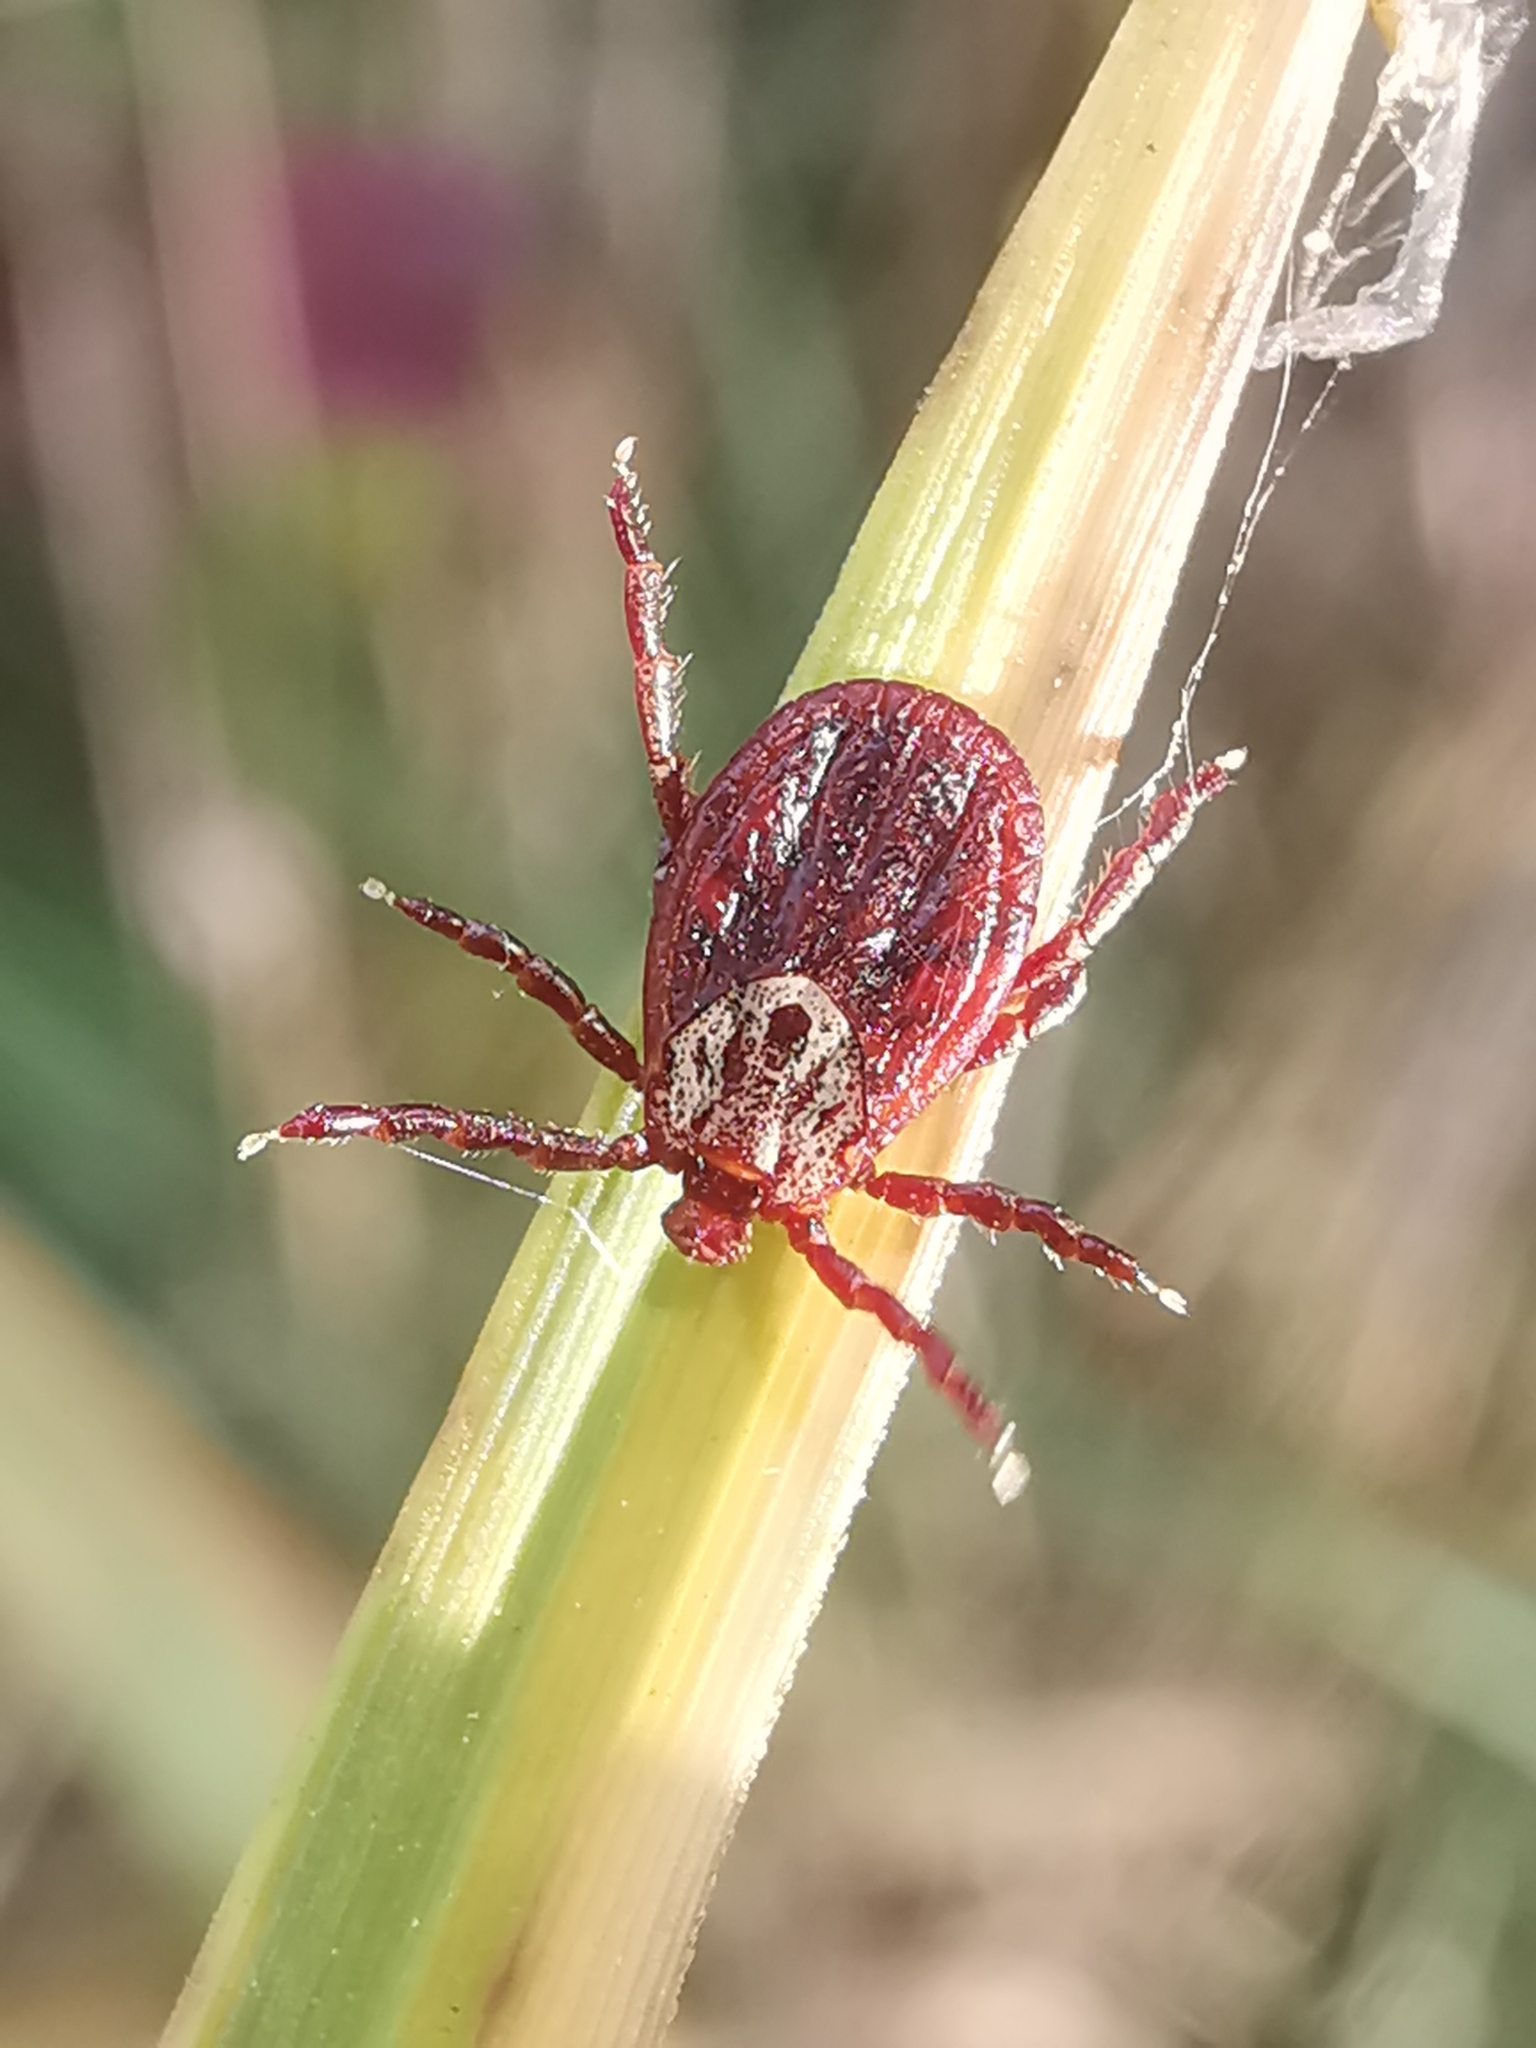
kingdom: Animalia
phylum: Arthropoda
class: Arachnida
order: Ixodida
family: Ixodidae
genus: Dermacentor
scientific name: Dermacentor reticulatus
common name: Ornate cow tick
